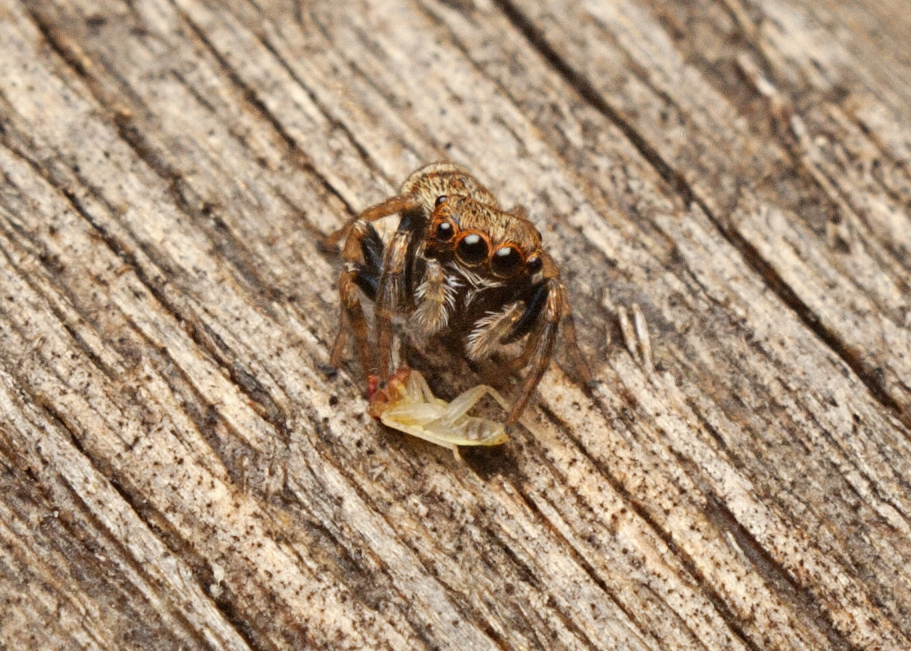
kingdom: Animalia
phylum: Arthropoda
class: Arachnida
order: Araneae
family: Salticidae
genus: Euryattus
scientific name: Euryattus bleekeri
